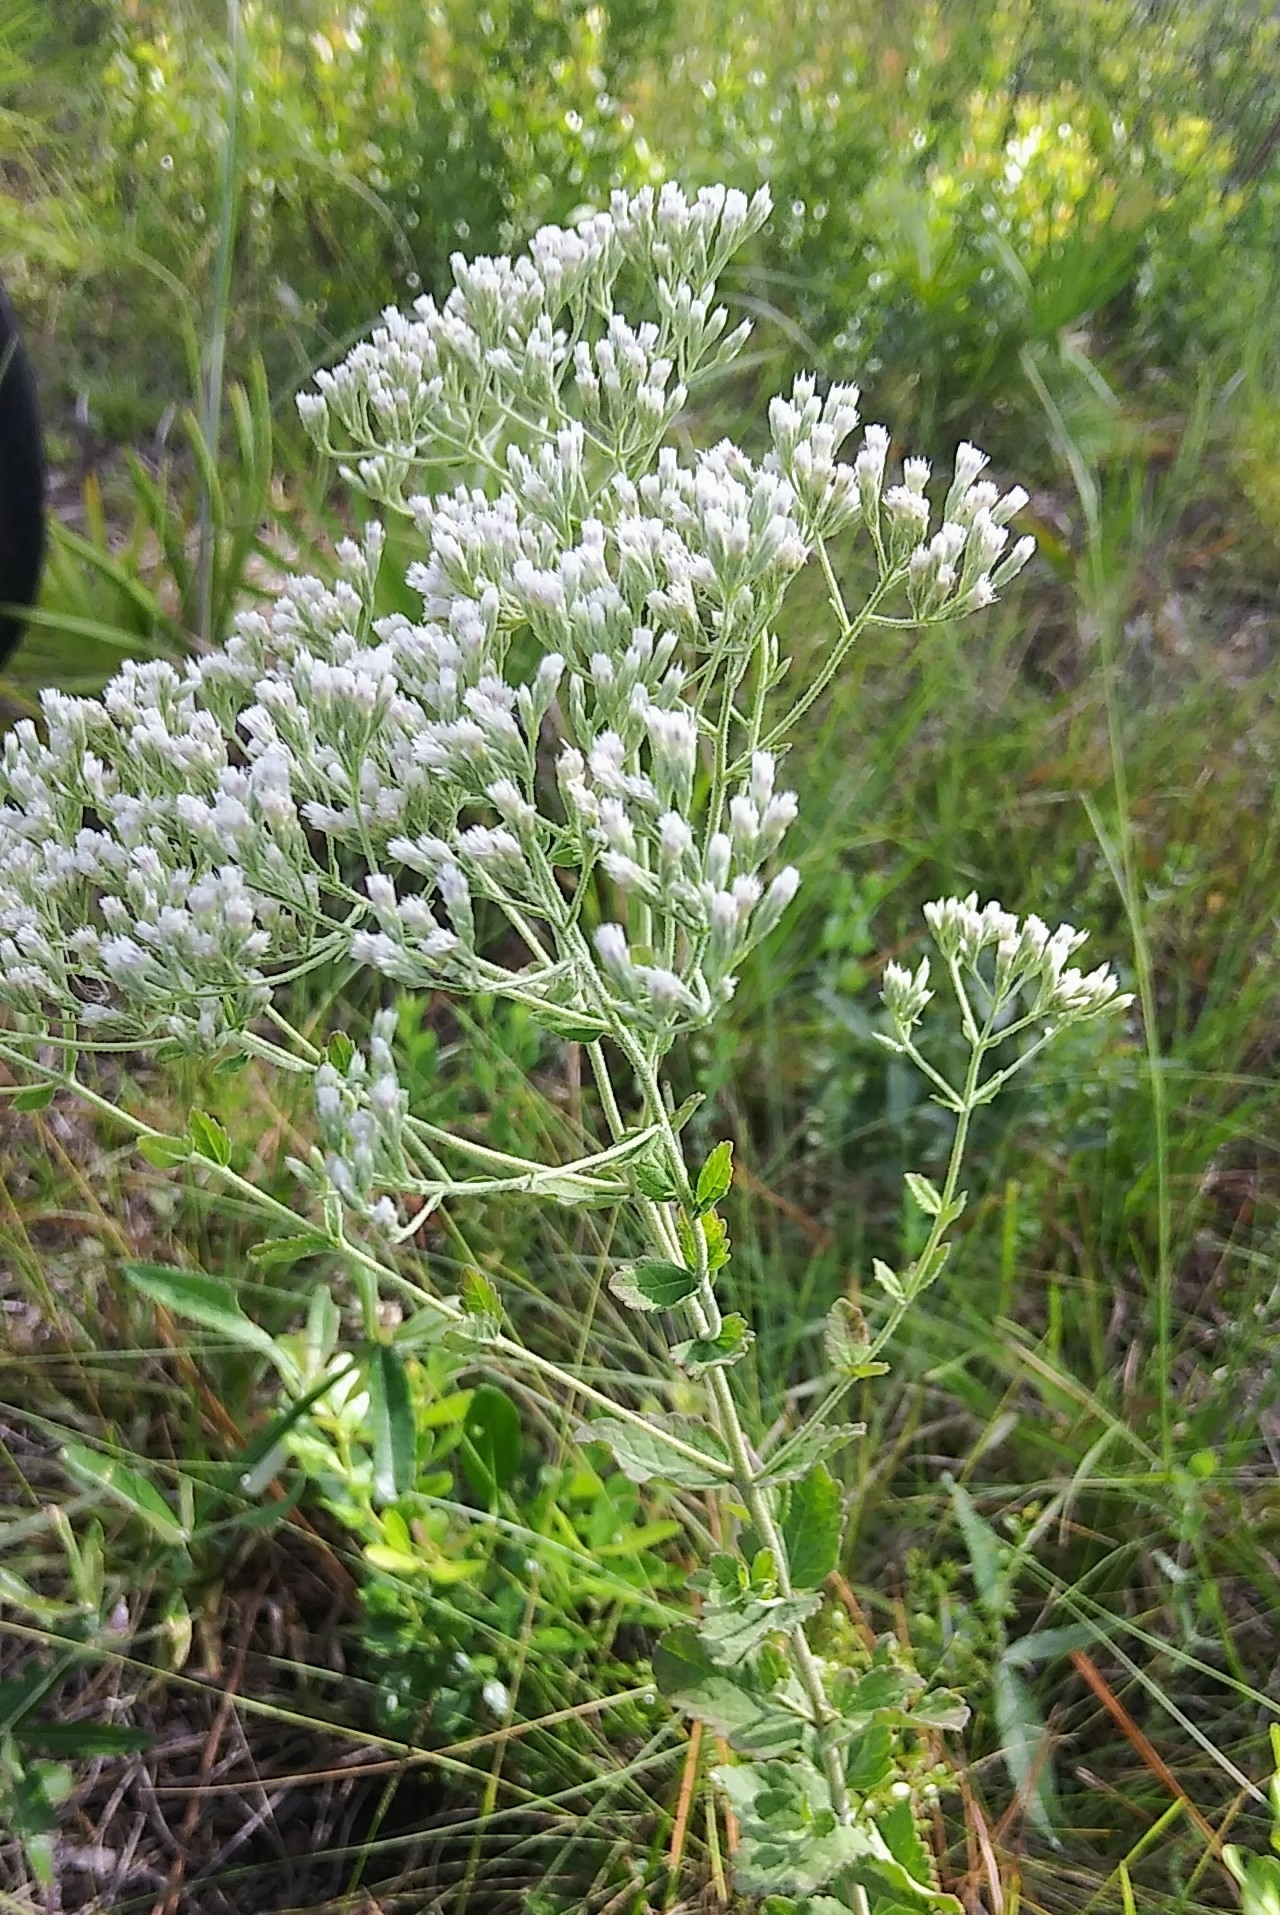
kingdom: Plantae
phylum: Tracheophyta
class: Magnoliopsida
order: Asterales
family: Asteraceae
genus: Eupatorium
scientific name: Eupatorium rotundifolium
